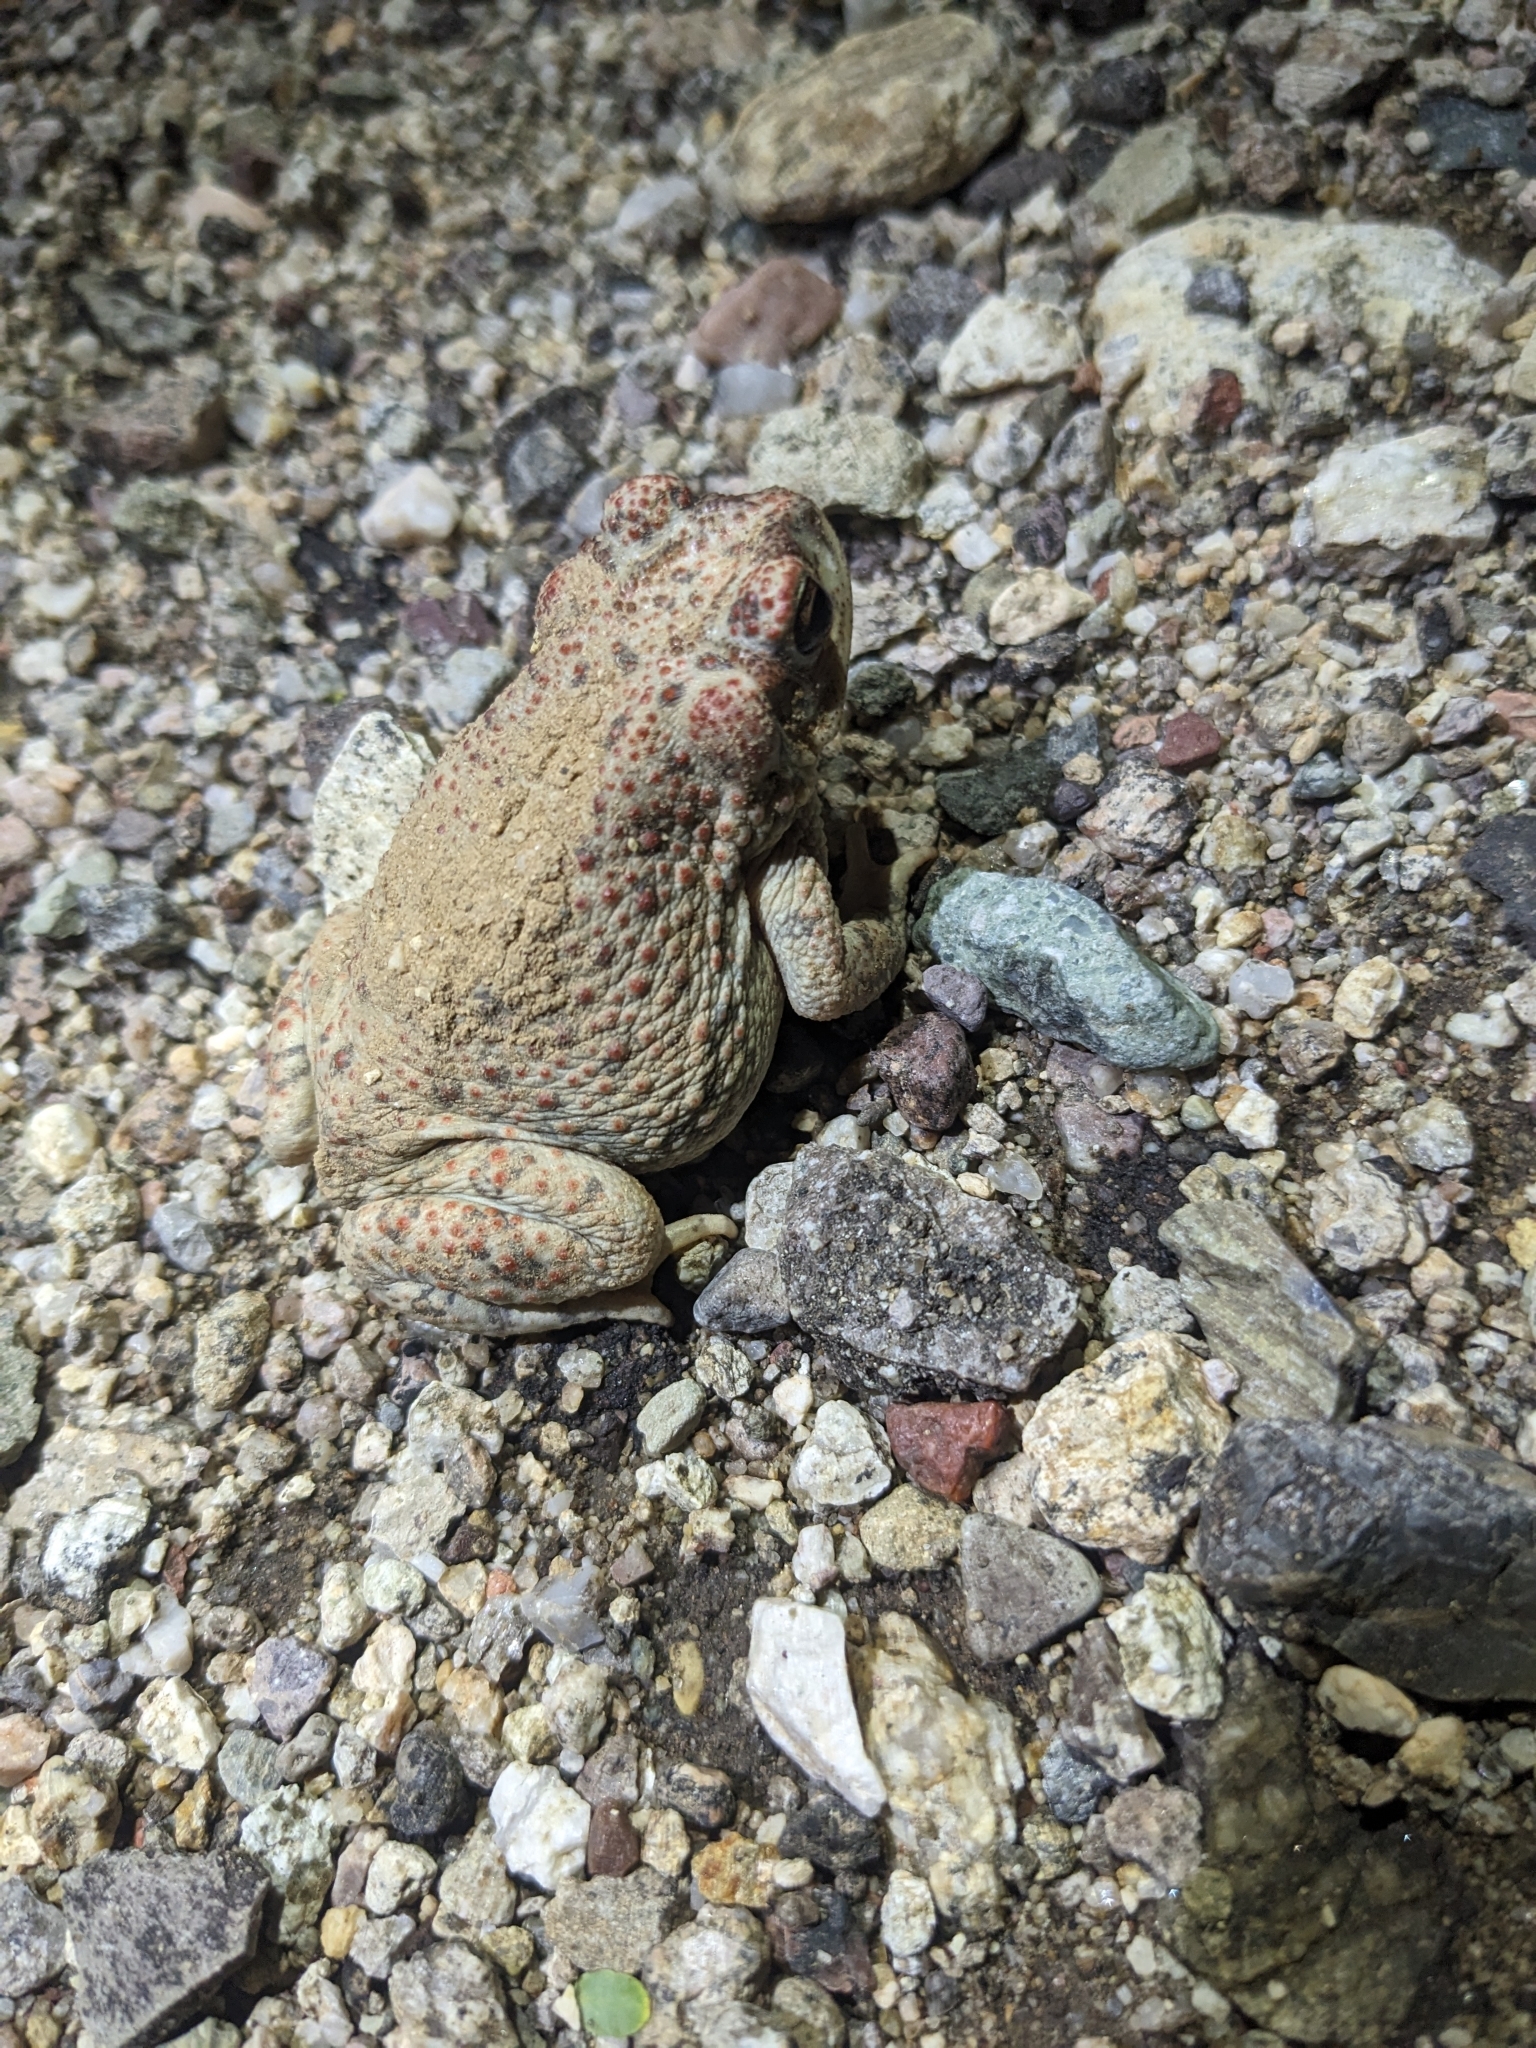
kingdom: Animalia
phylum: Chordata
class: Amphibia
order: Anura
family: Bufonidae
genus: Anaxyrus
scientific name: Anaxyrus punctatus
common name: Red-spotted toad
